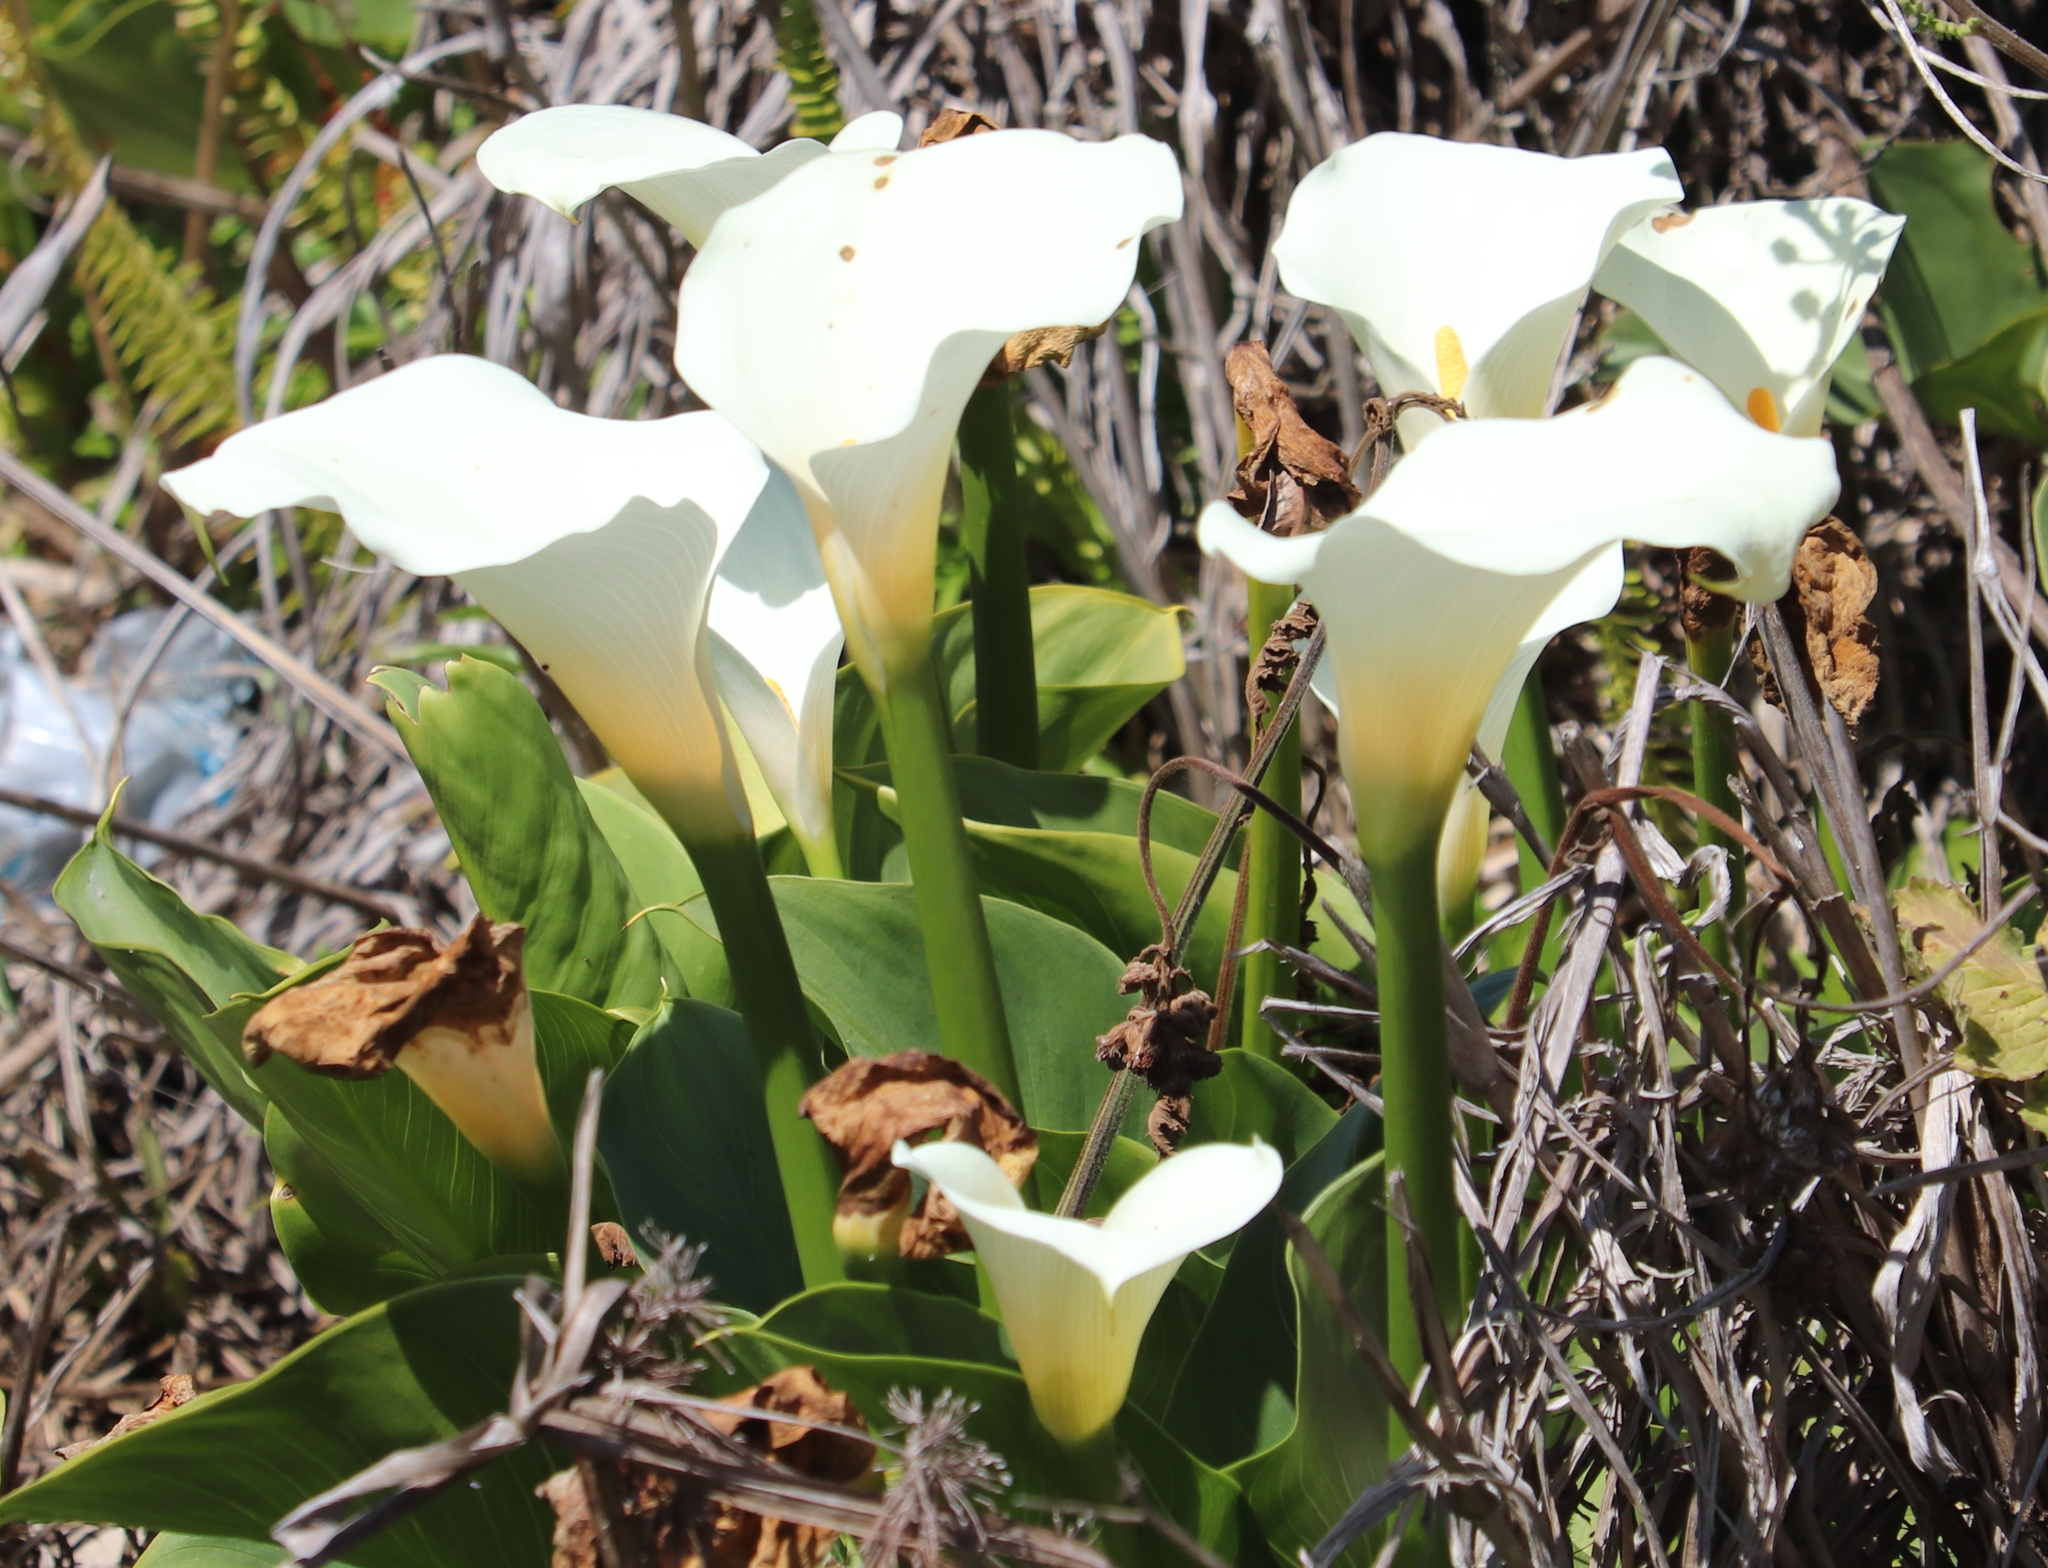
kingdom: Plantae
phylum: Tracheophyta
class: Liliopsida
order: Alismatales
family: Araceae
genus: Zantedeschia
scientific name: Zantedeschia aethiopica
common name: Altar-lily
